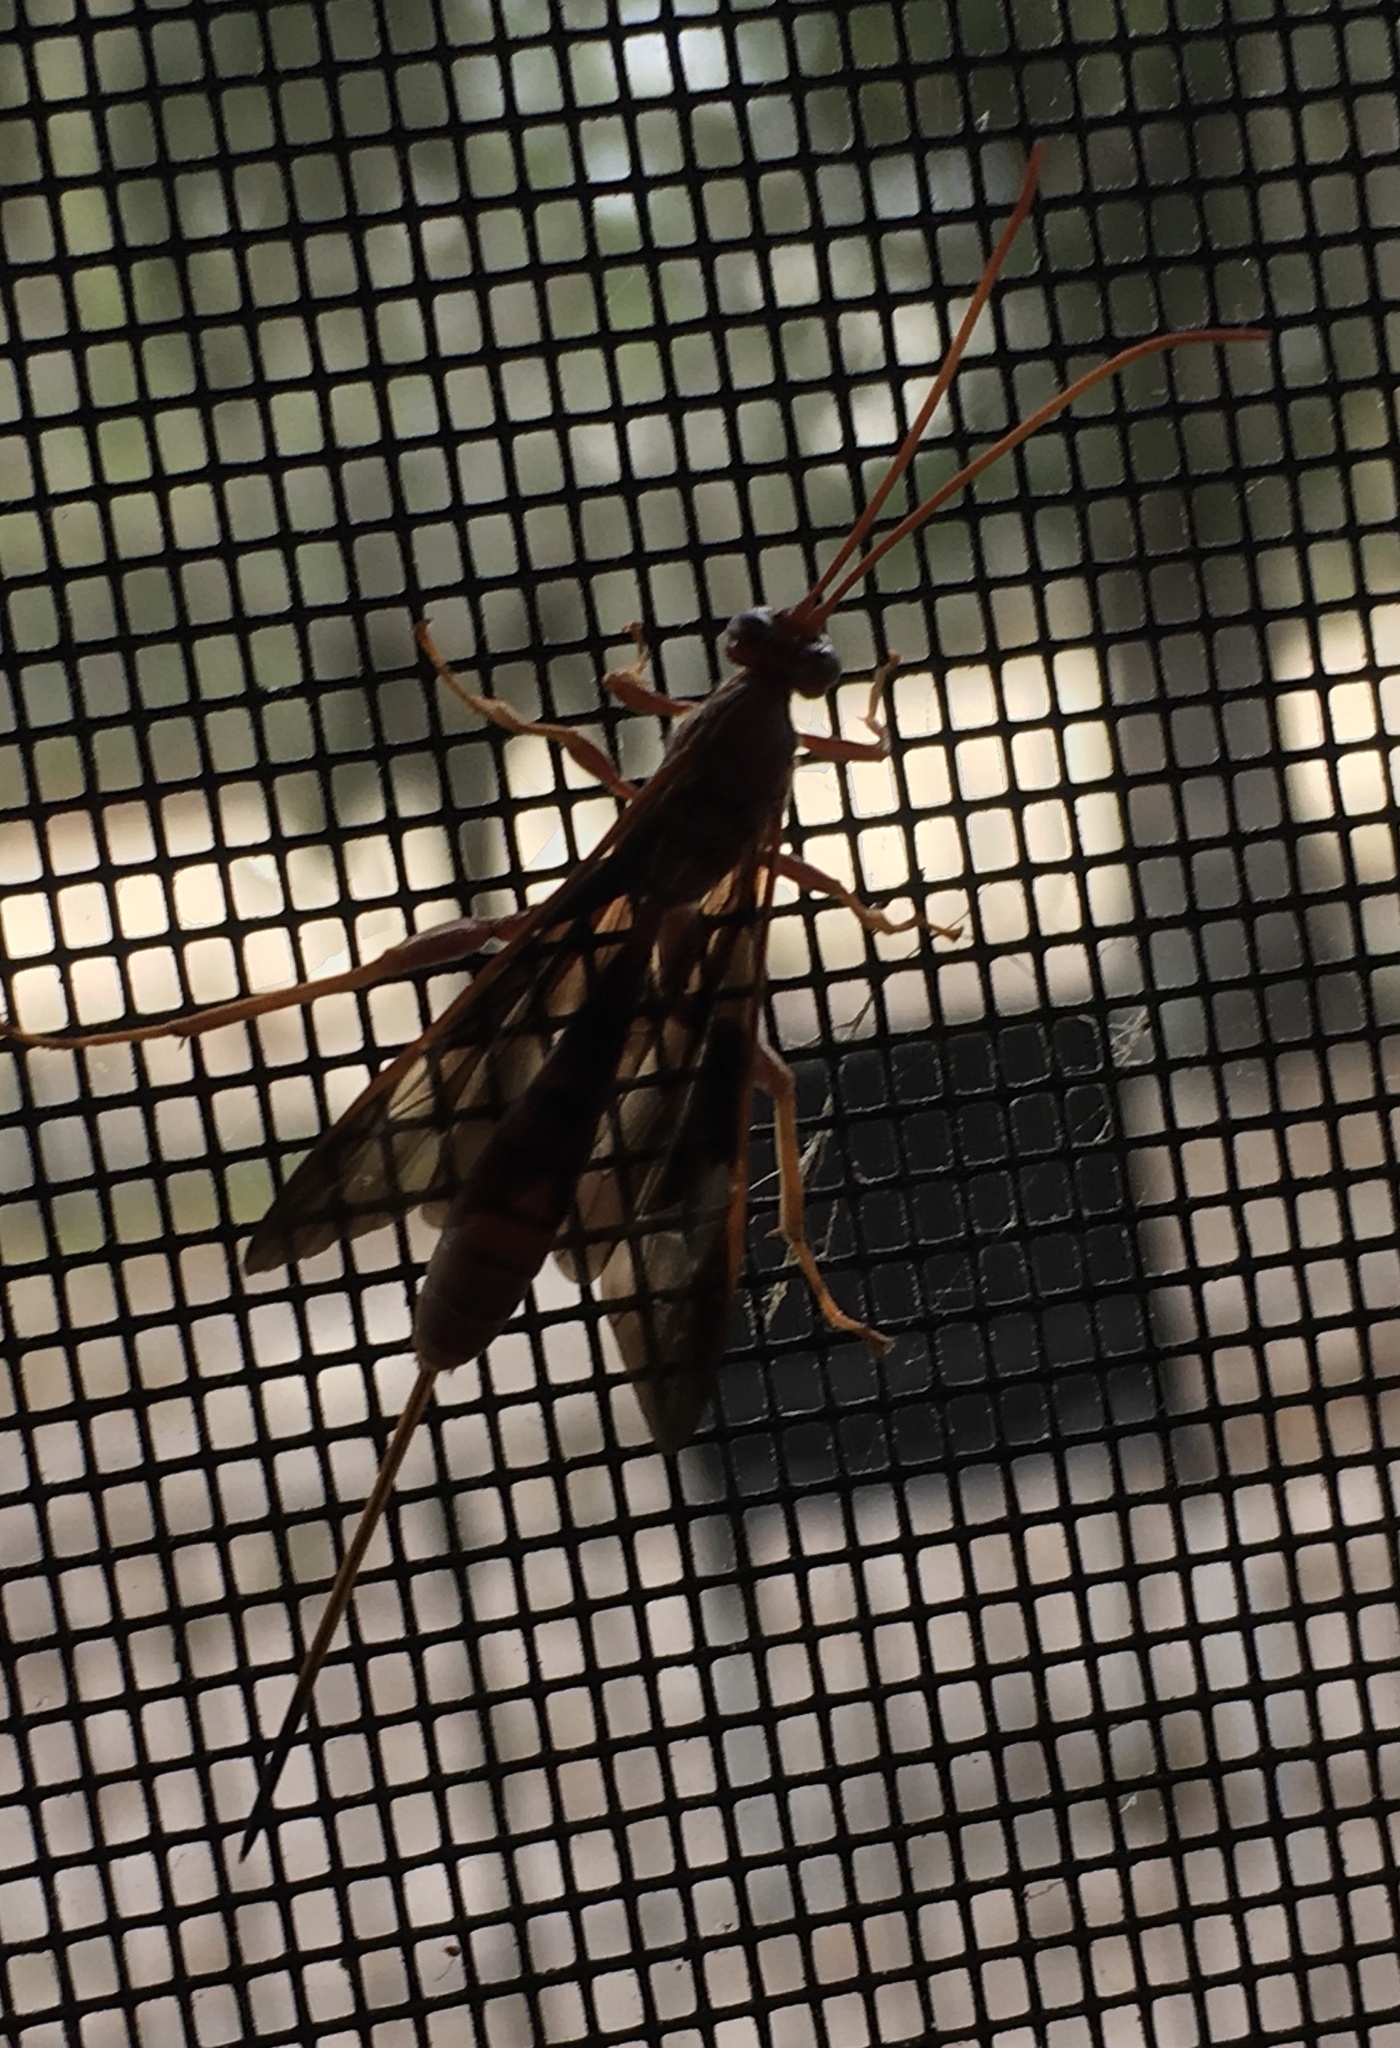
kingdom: Animalia
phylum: Arthropoda
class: Insecta
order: Hymenoptera
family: Ichneumonidae
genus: Labena
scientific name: Labena grallator
